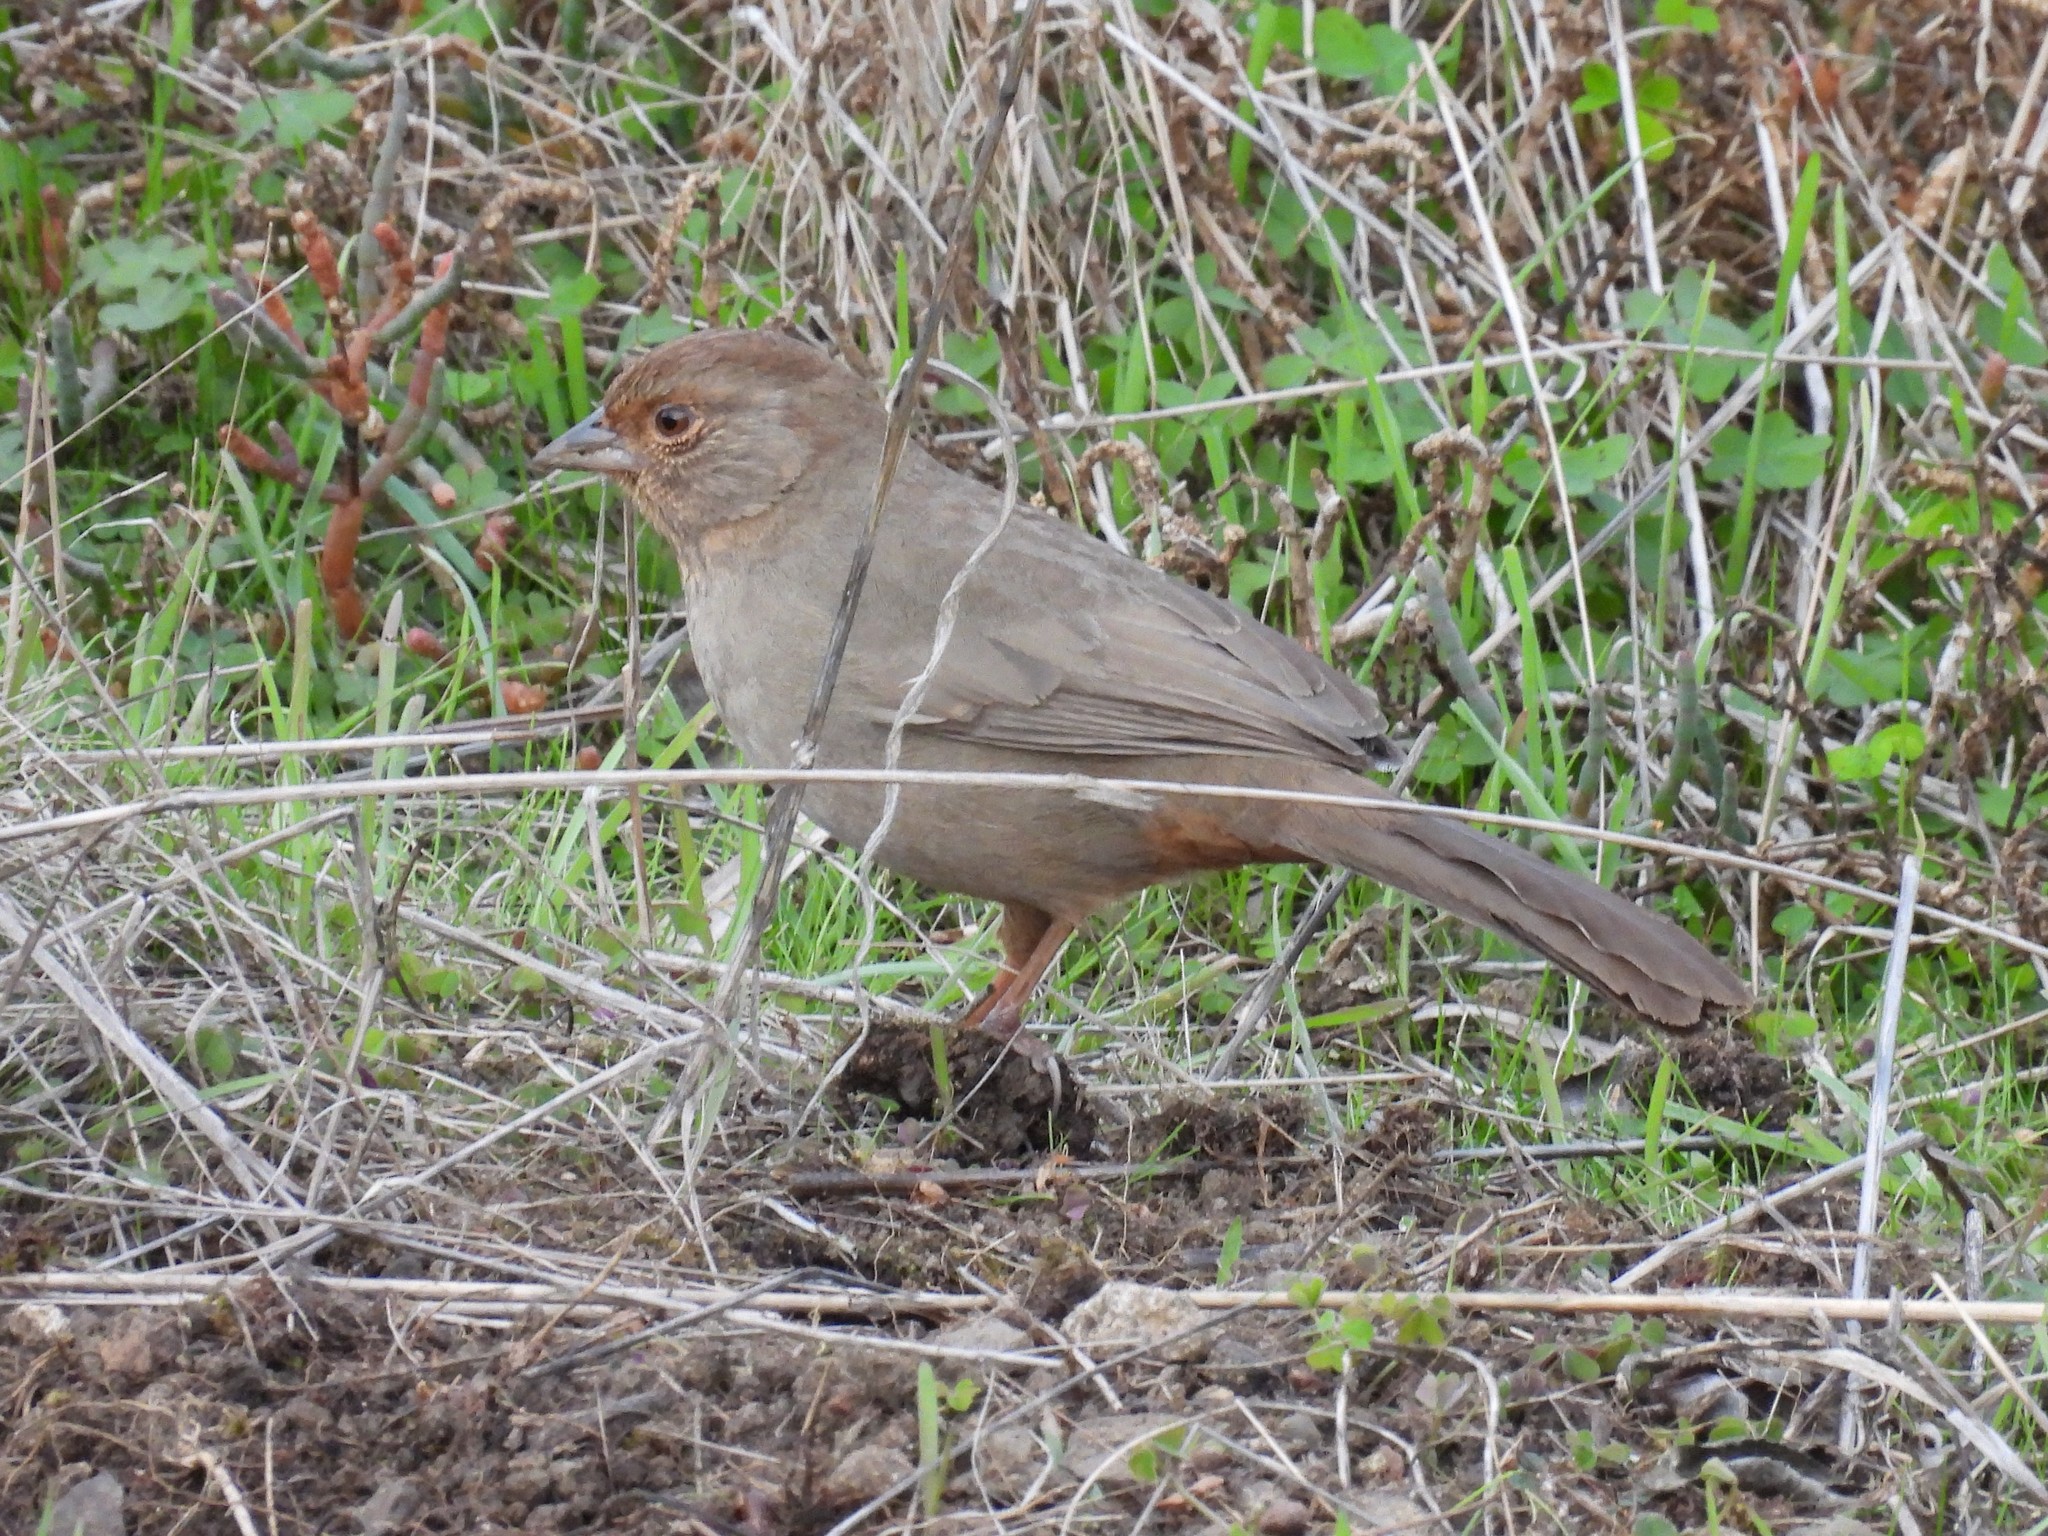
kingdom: Animalia
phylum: Chordata
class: Aves
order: Passeriformes
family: Passerellidae
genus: Melozone
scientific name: Melozone crissalis
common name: California towhee
